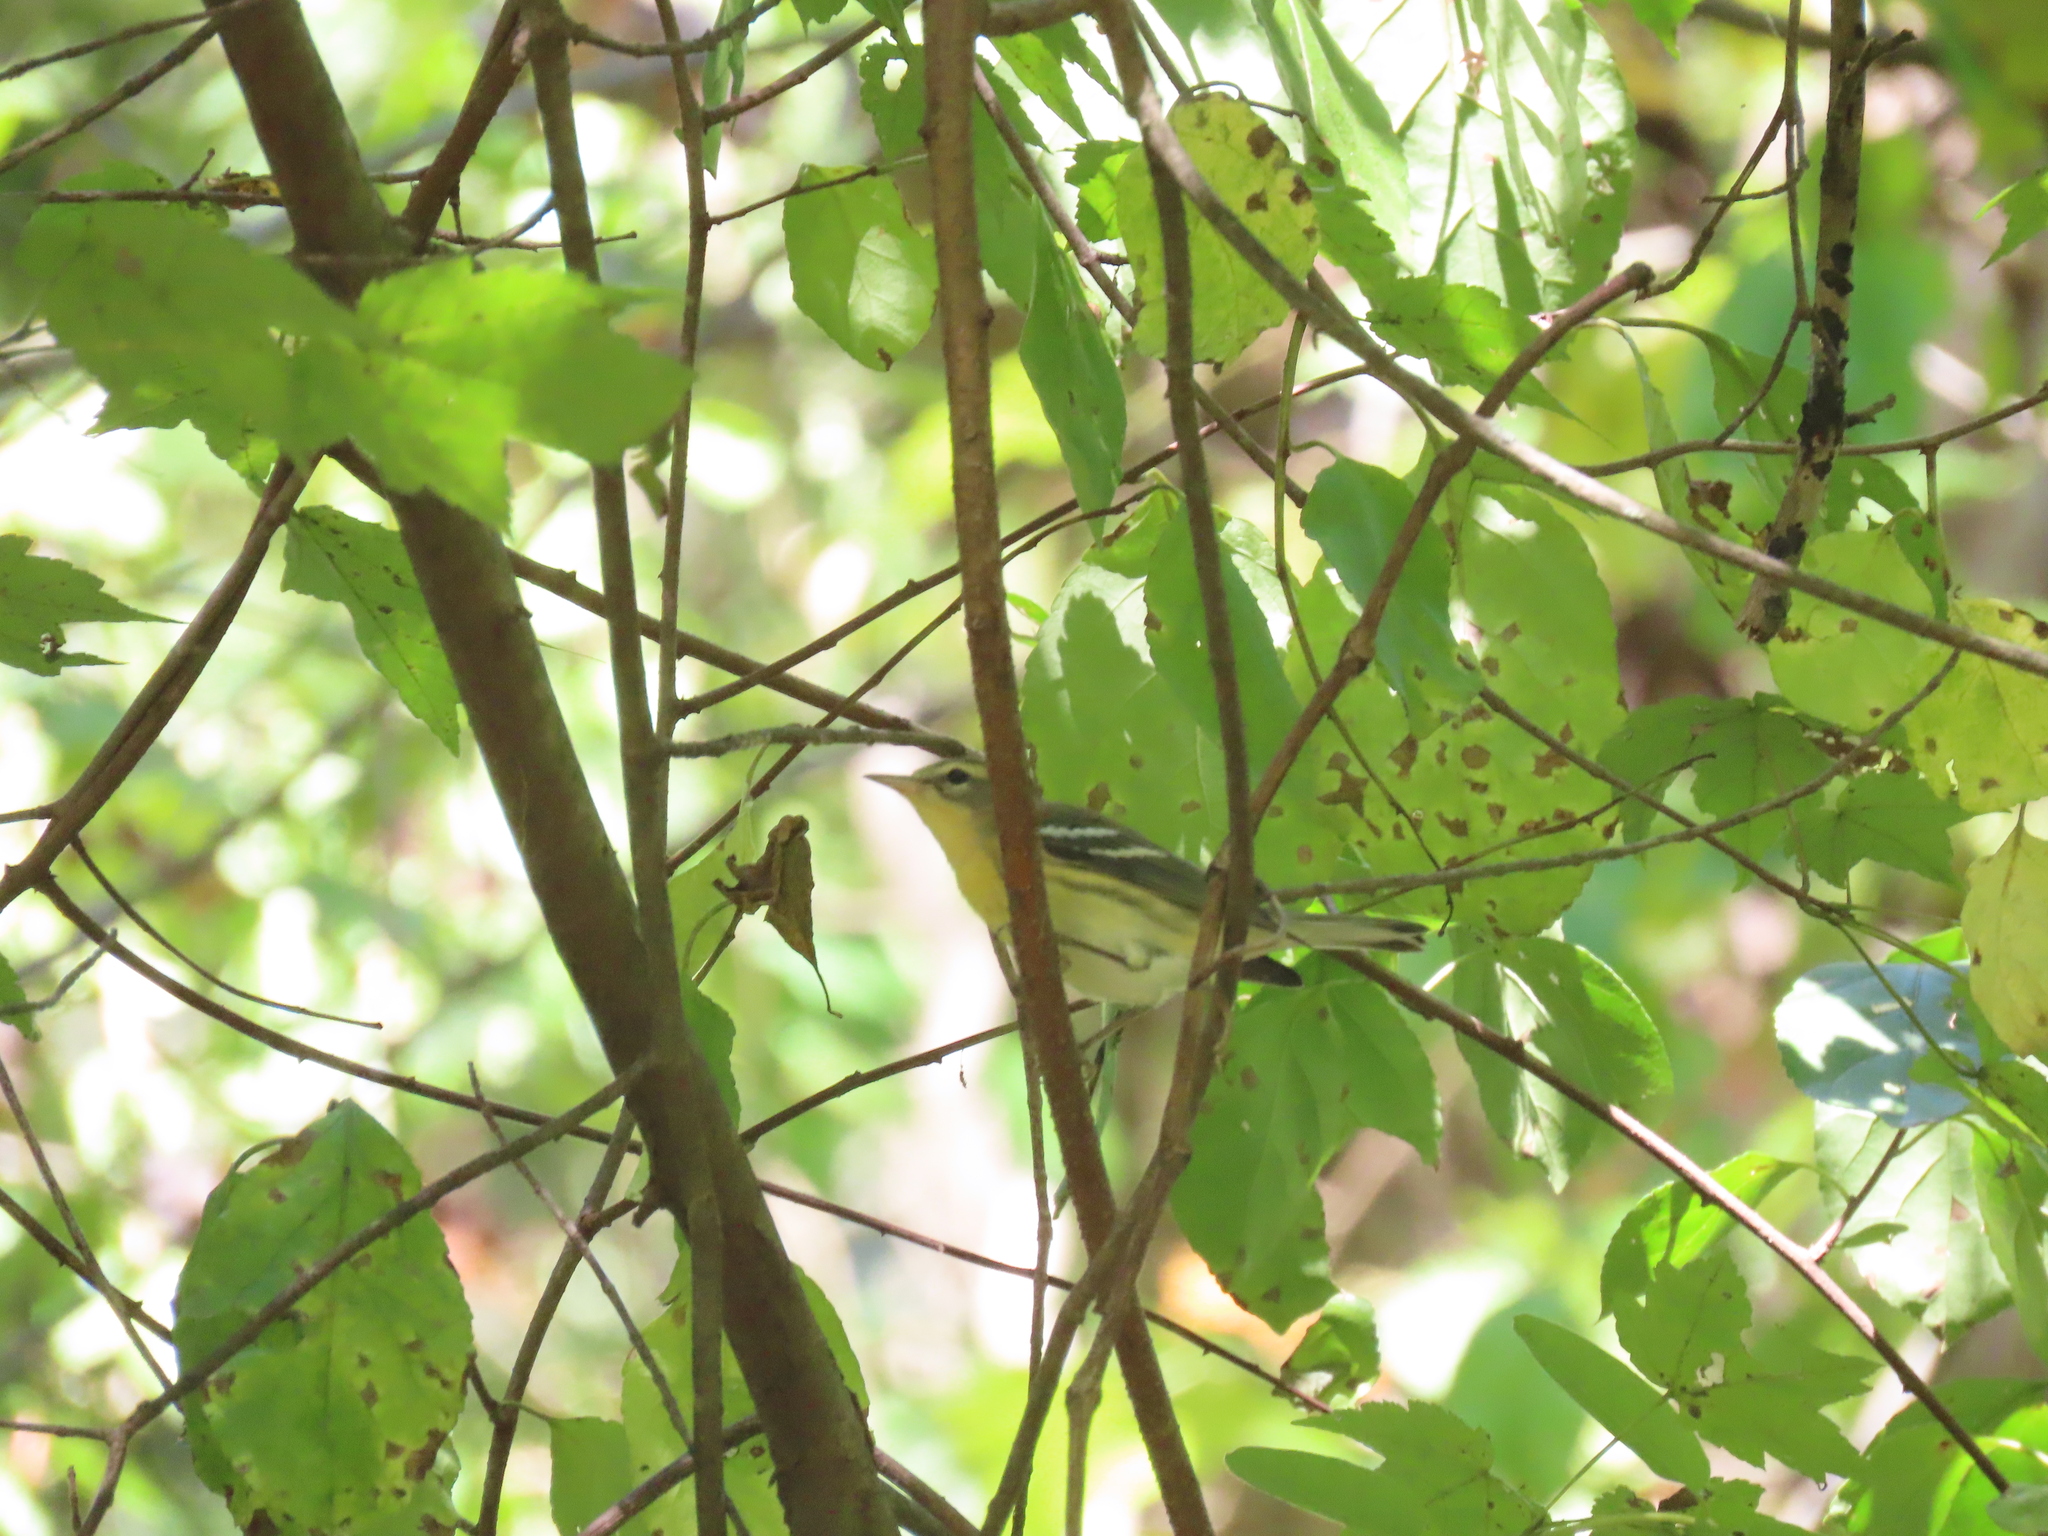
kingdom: Animalia
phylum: Chordata
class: Aves
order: Passeriformes
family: Parulidae
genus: Setophaga
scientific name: Setophaga fusca
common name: Blackburnian warbler
